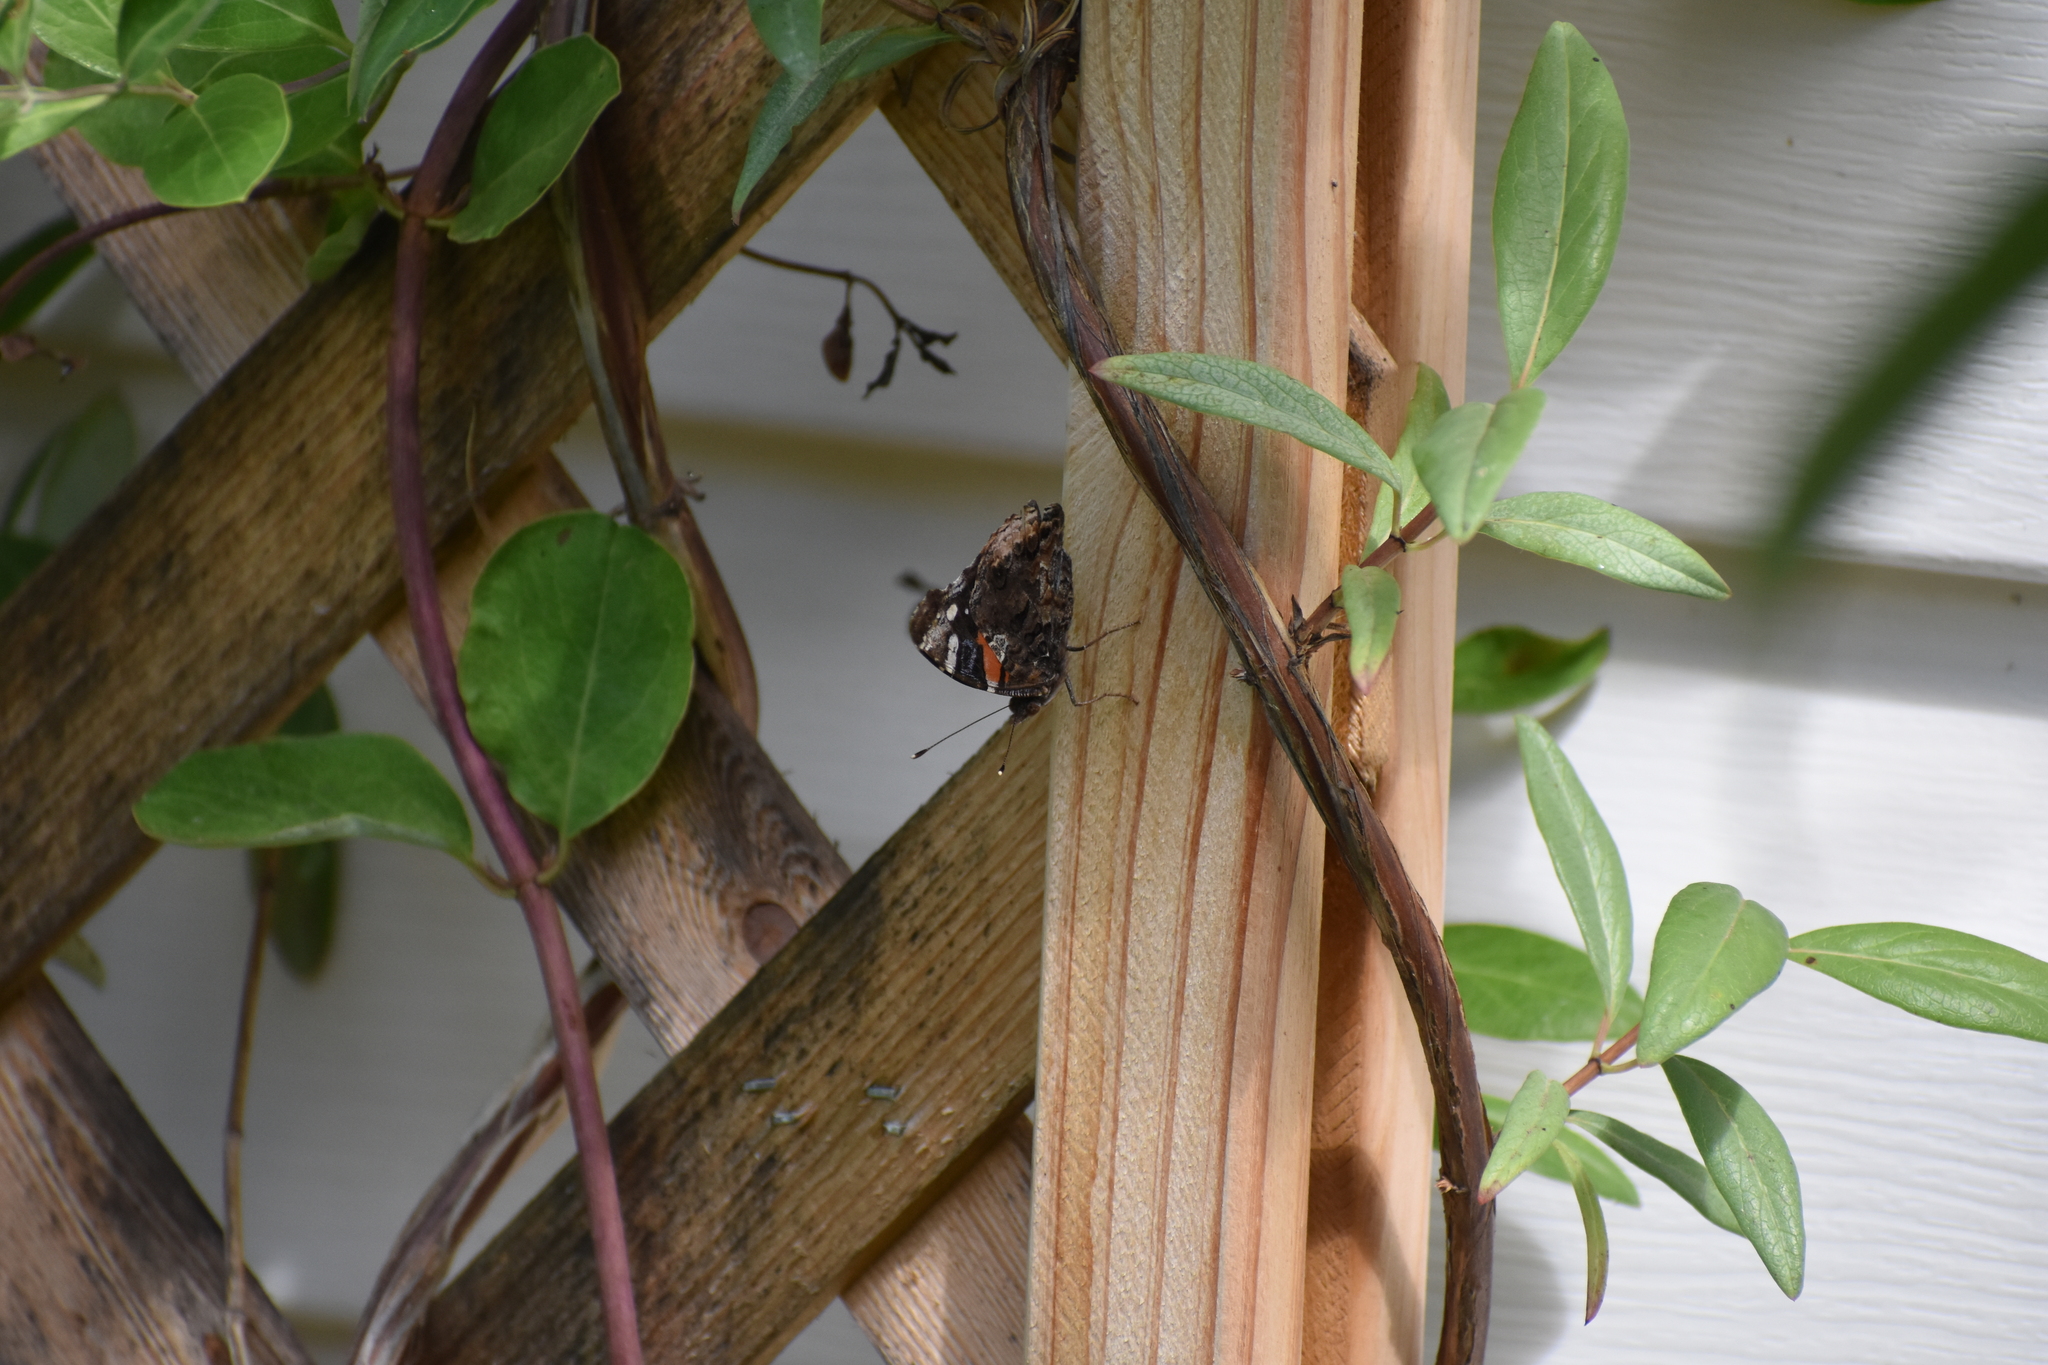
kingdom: Animalia
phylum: Arthropoda
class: Insecta
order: Lepidoptera
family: Nymphalidae
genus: Vanessa
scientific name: Vanessa atalanta
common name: Red admiral
